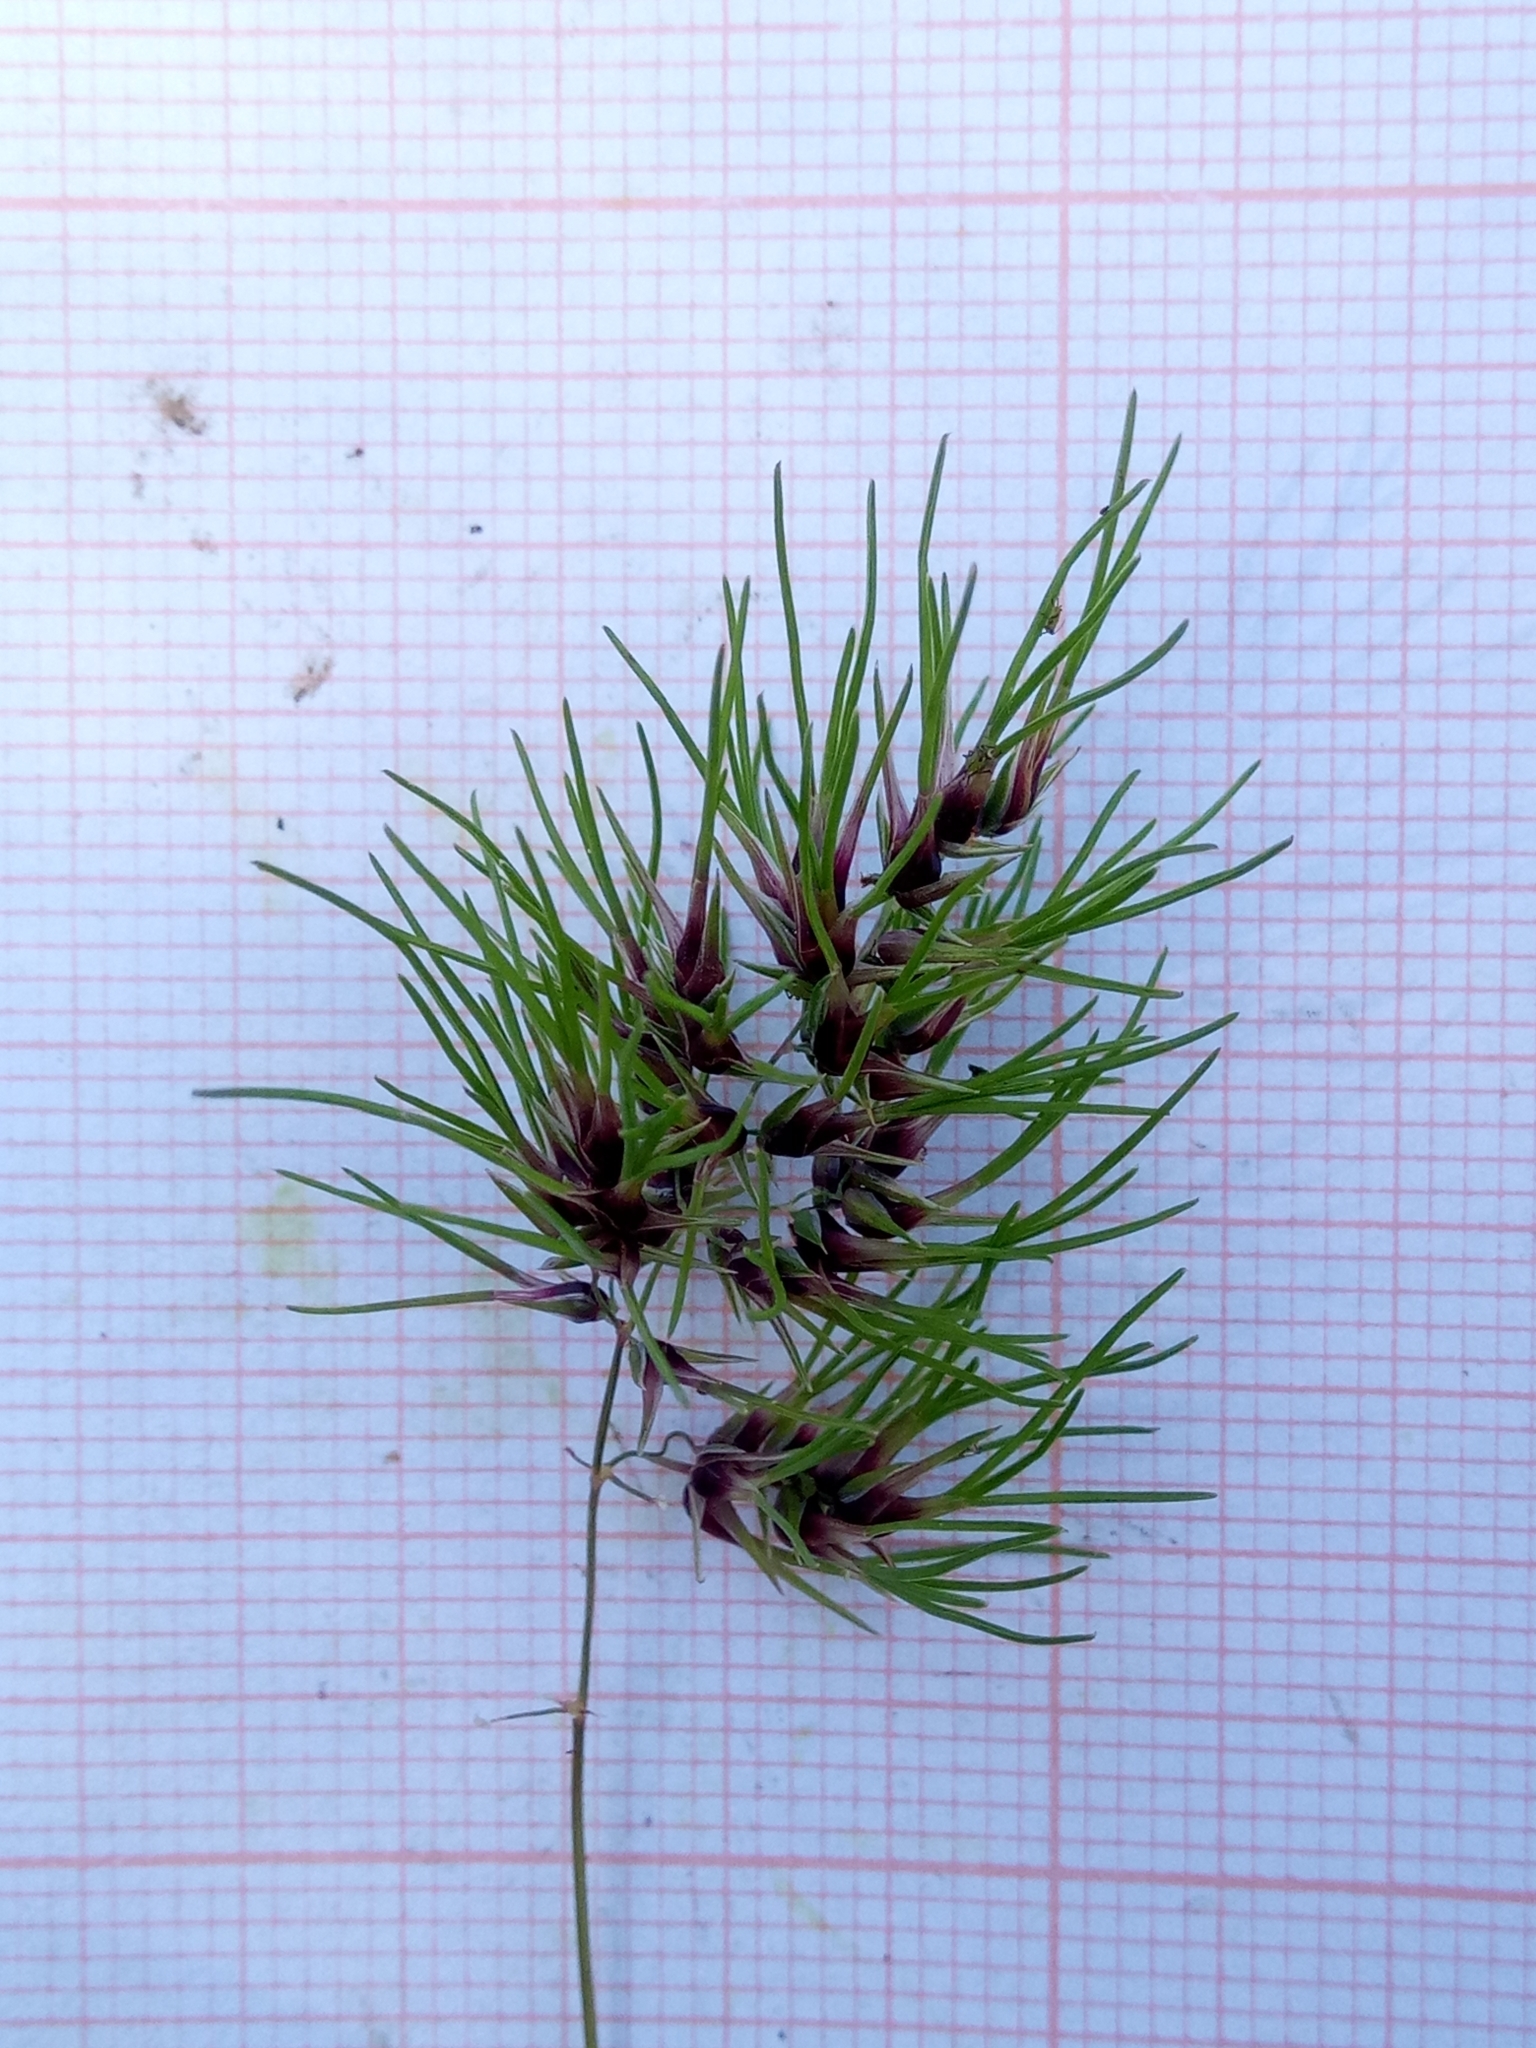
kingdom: Plantae
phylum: Tracheophyta
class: Liliopsida
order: Poales
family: Poaceae
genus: Poa
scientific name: Poa bulbosa
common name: Bulbous bluegrass
